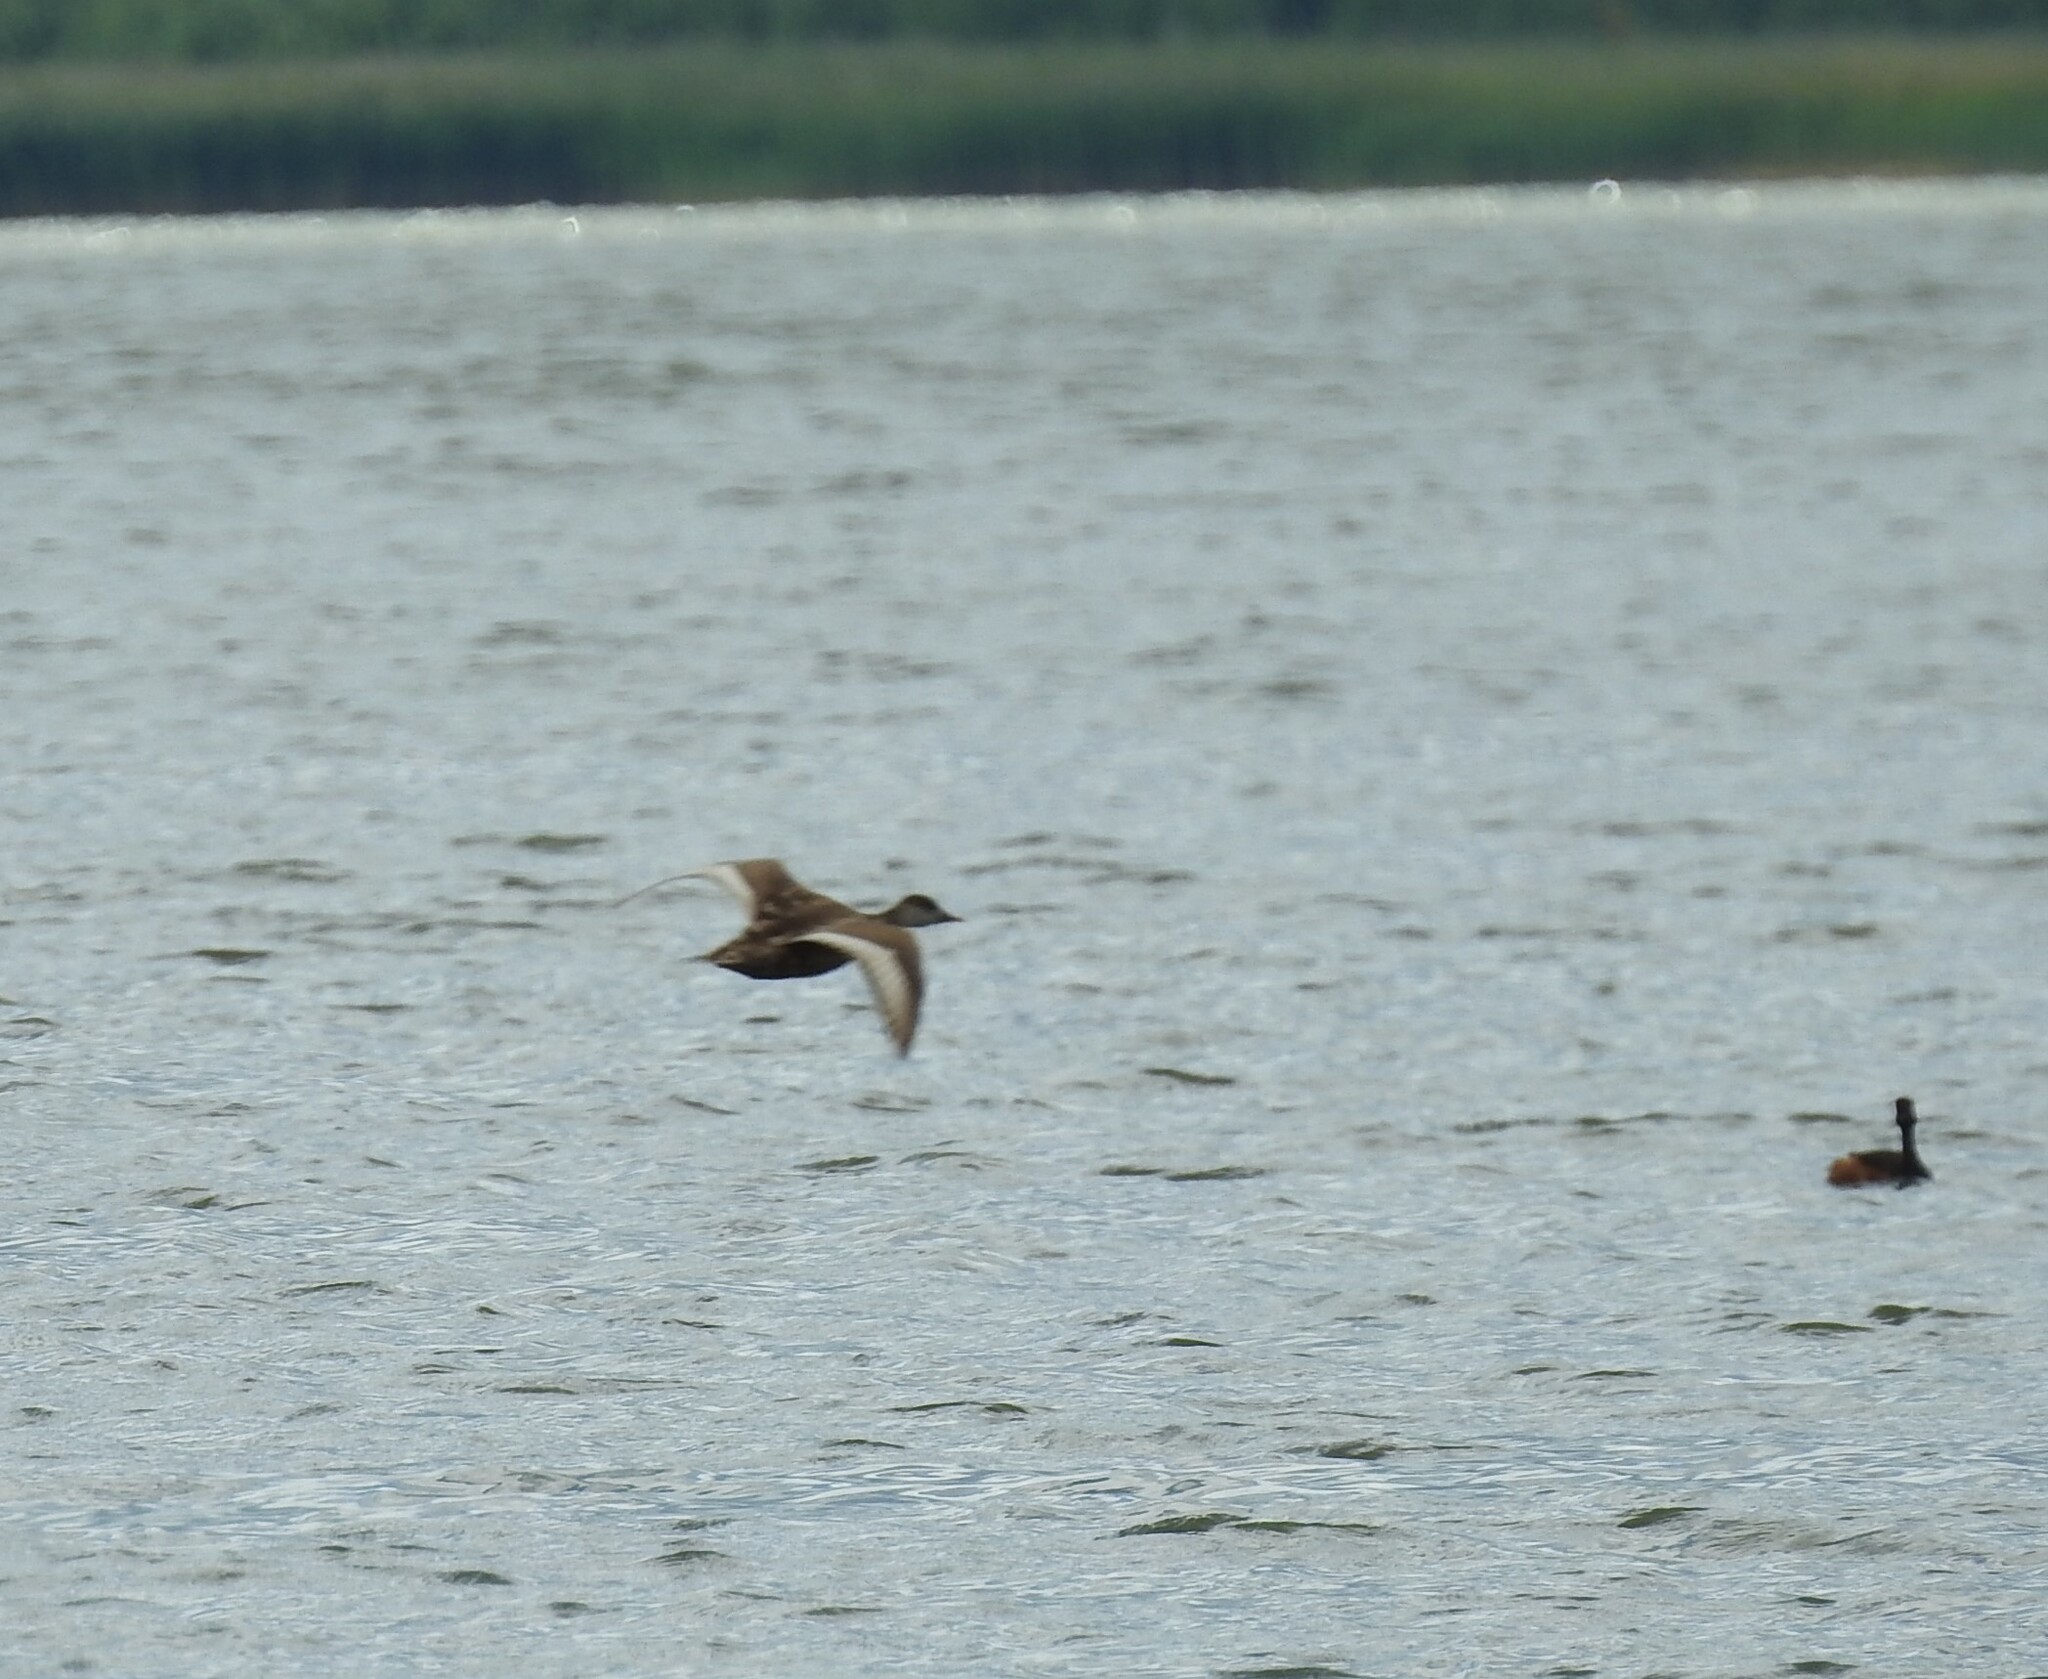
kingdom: Animalia
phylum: Chordata
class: Aves
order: Anseriformes
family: Anatidae
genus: Netta
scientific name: Netta rufina
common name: Red-crested pochard
